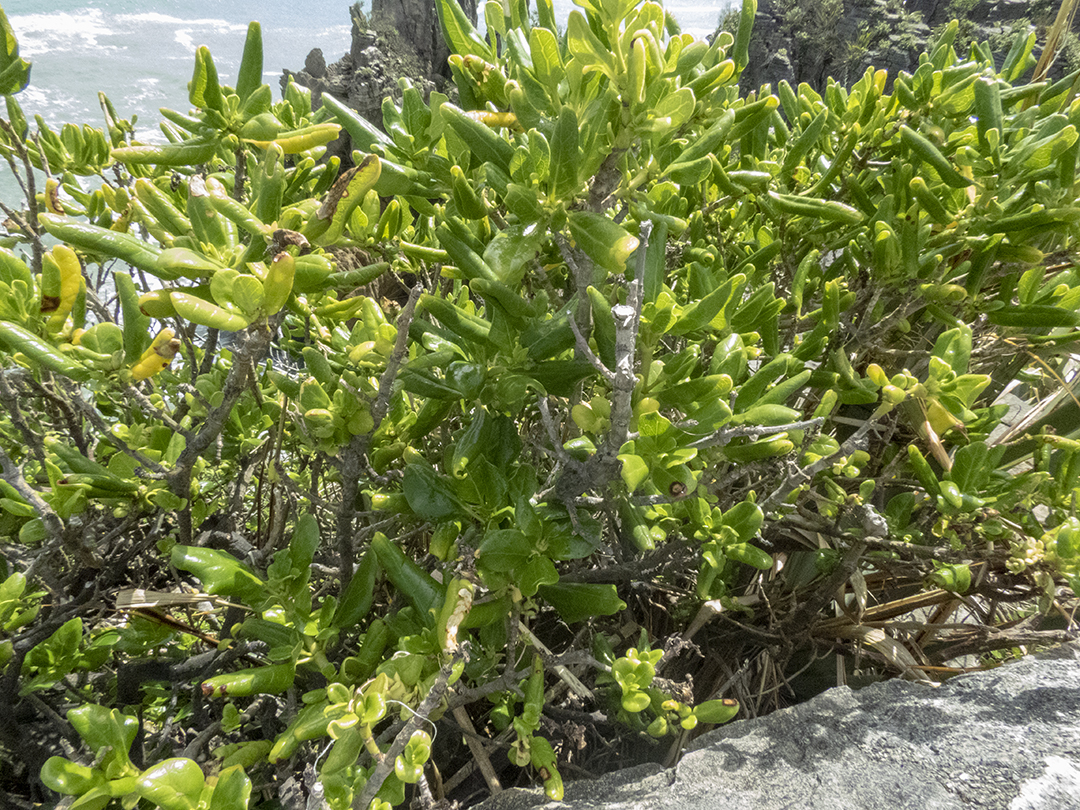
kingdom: Plantae
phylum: Tracheophyta
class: Magnoliopsida
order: Gentianales
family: Rubiaceae
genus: Coprosma
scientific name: Coprosma repens
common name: Tree bedstraw
